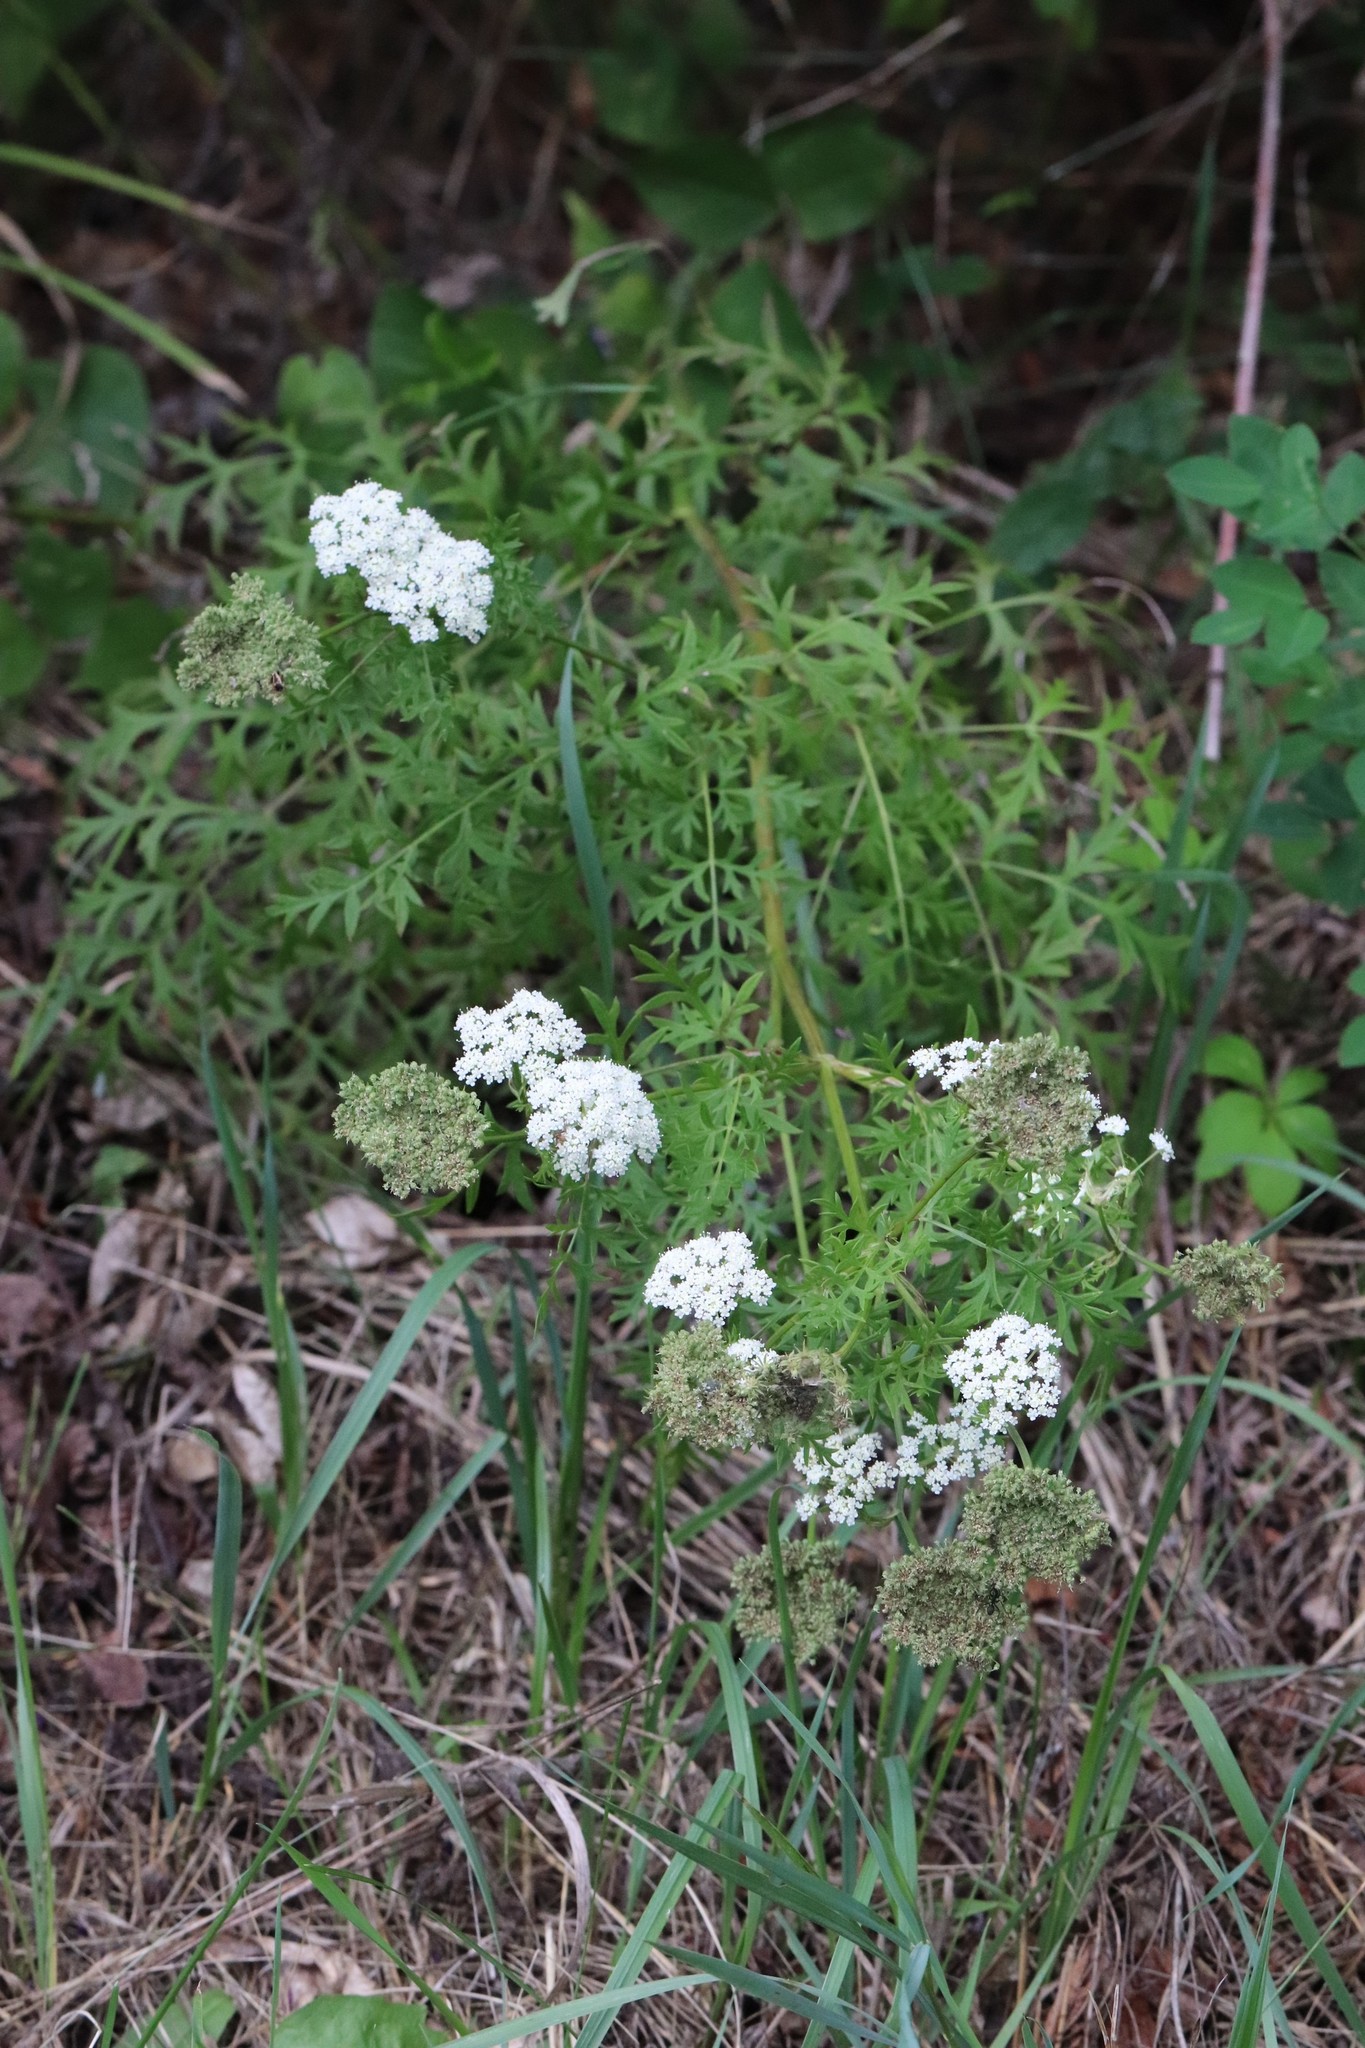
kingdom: Plantae
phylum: Tracheophyta
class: Magnoliopsida
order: Apiales
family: Apiaceae
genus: Seseli
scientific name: Seseli seseloides
